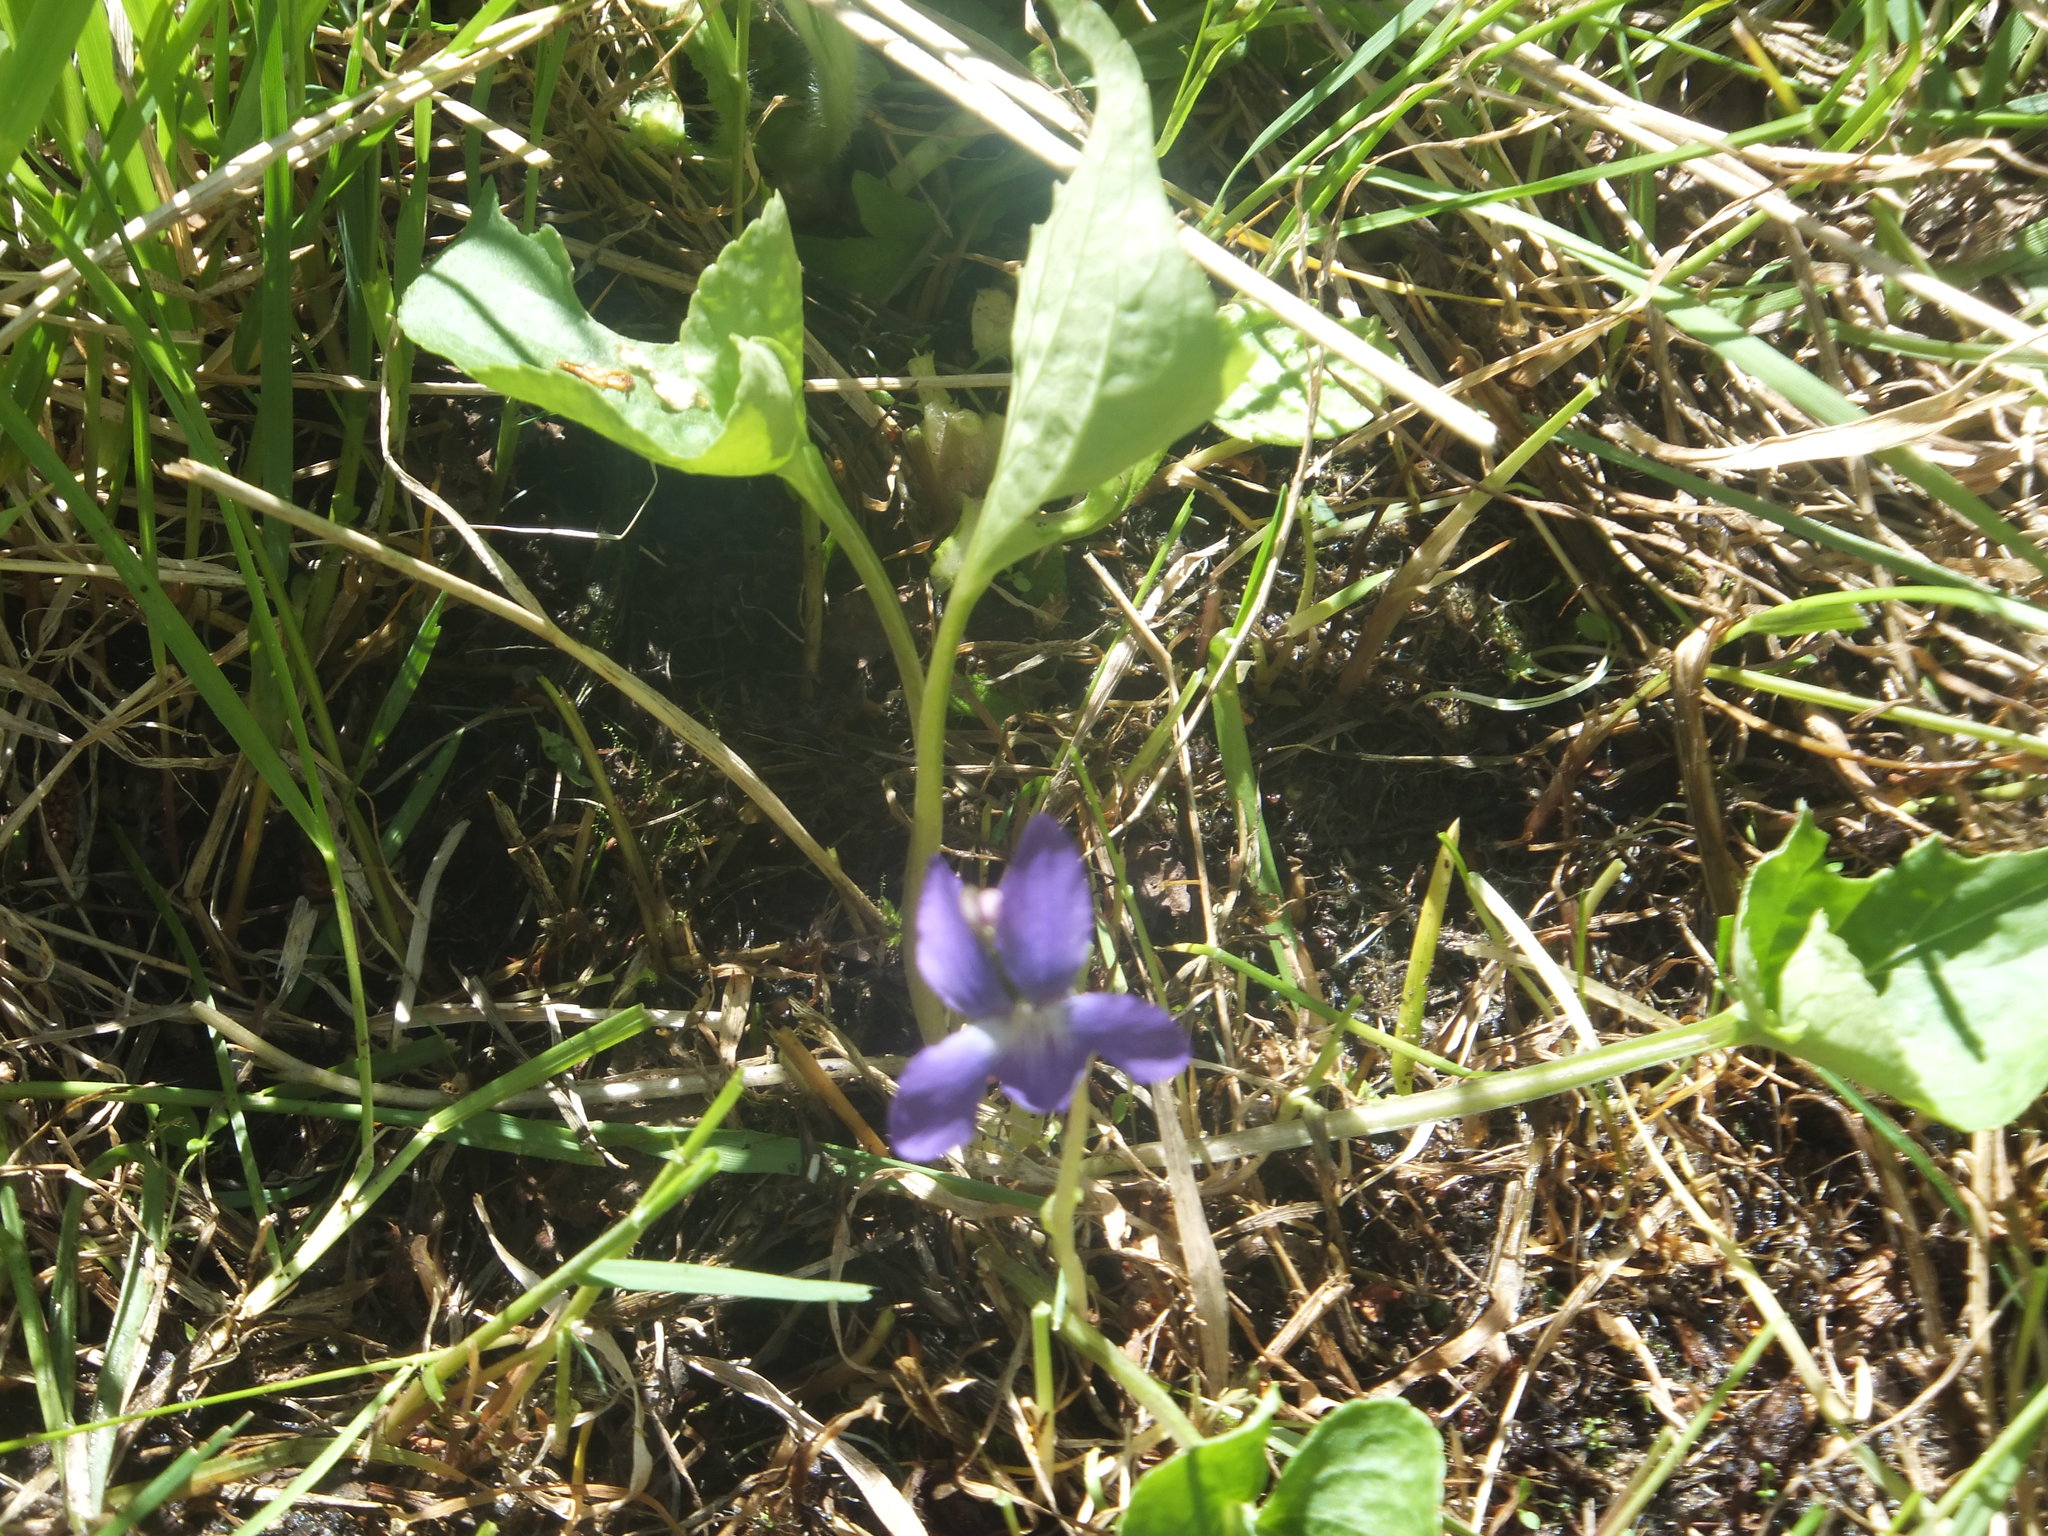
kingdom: Plantae
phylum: Tracheophyta
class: Magnoliopsida
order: Malpighiales
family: Violaceae
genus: Viola
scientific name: Viola nephrophylla
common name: Blue meadow violet
